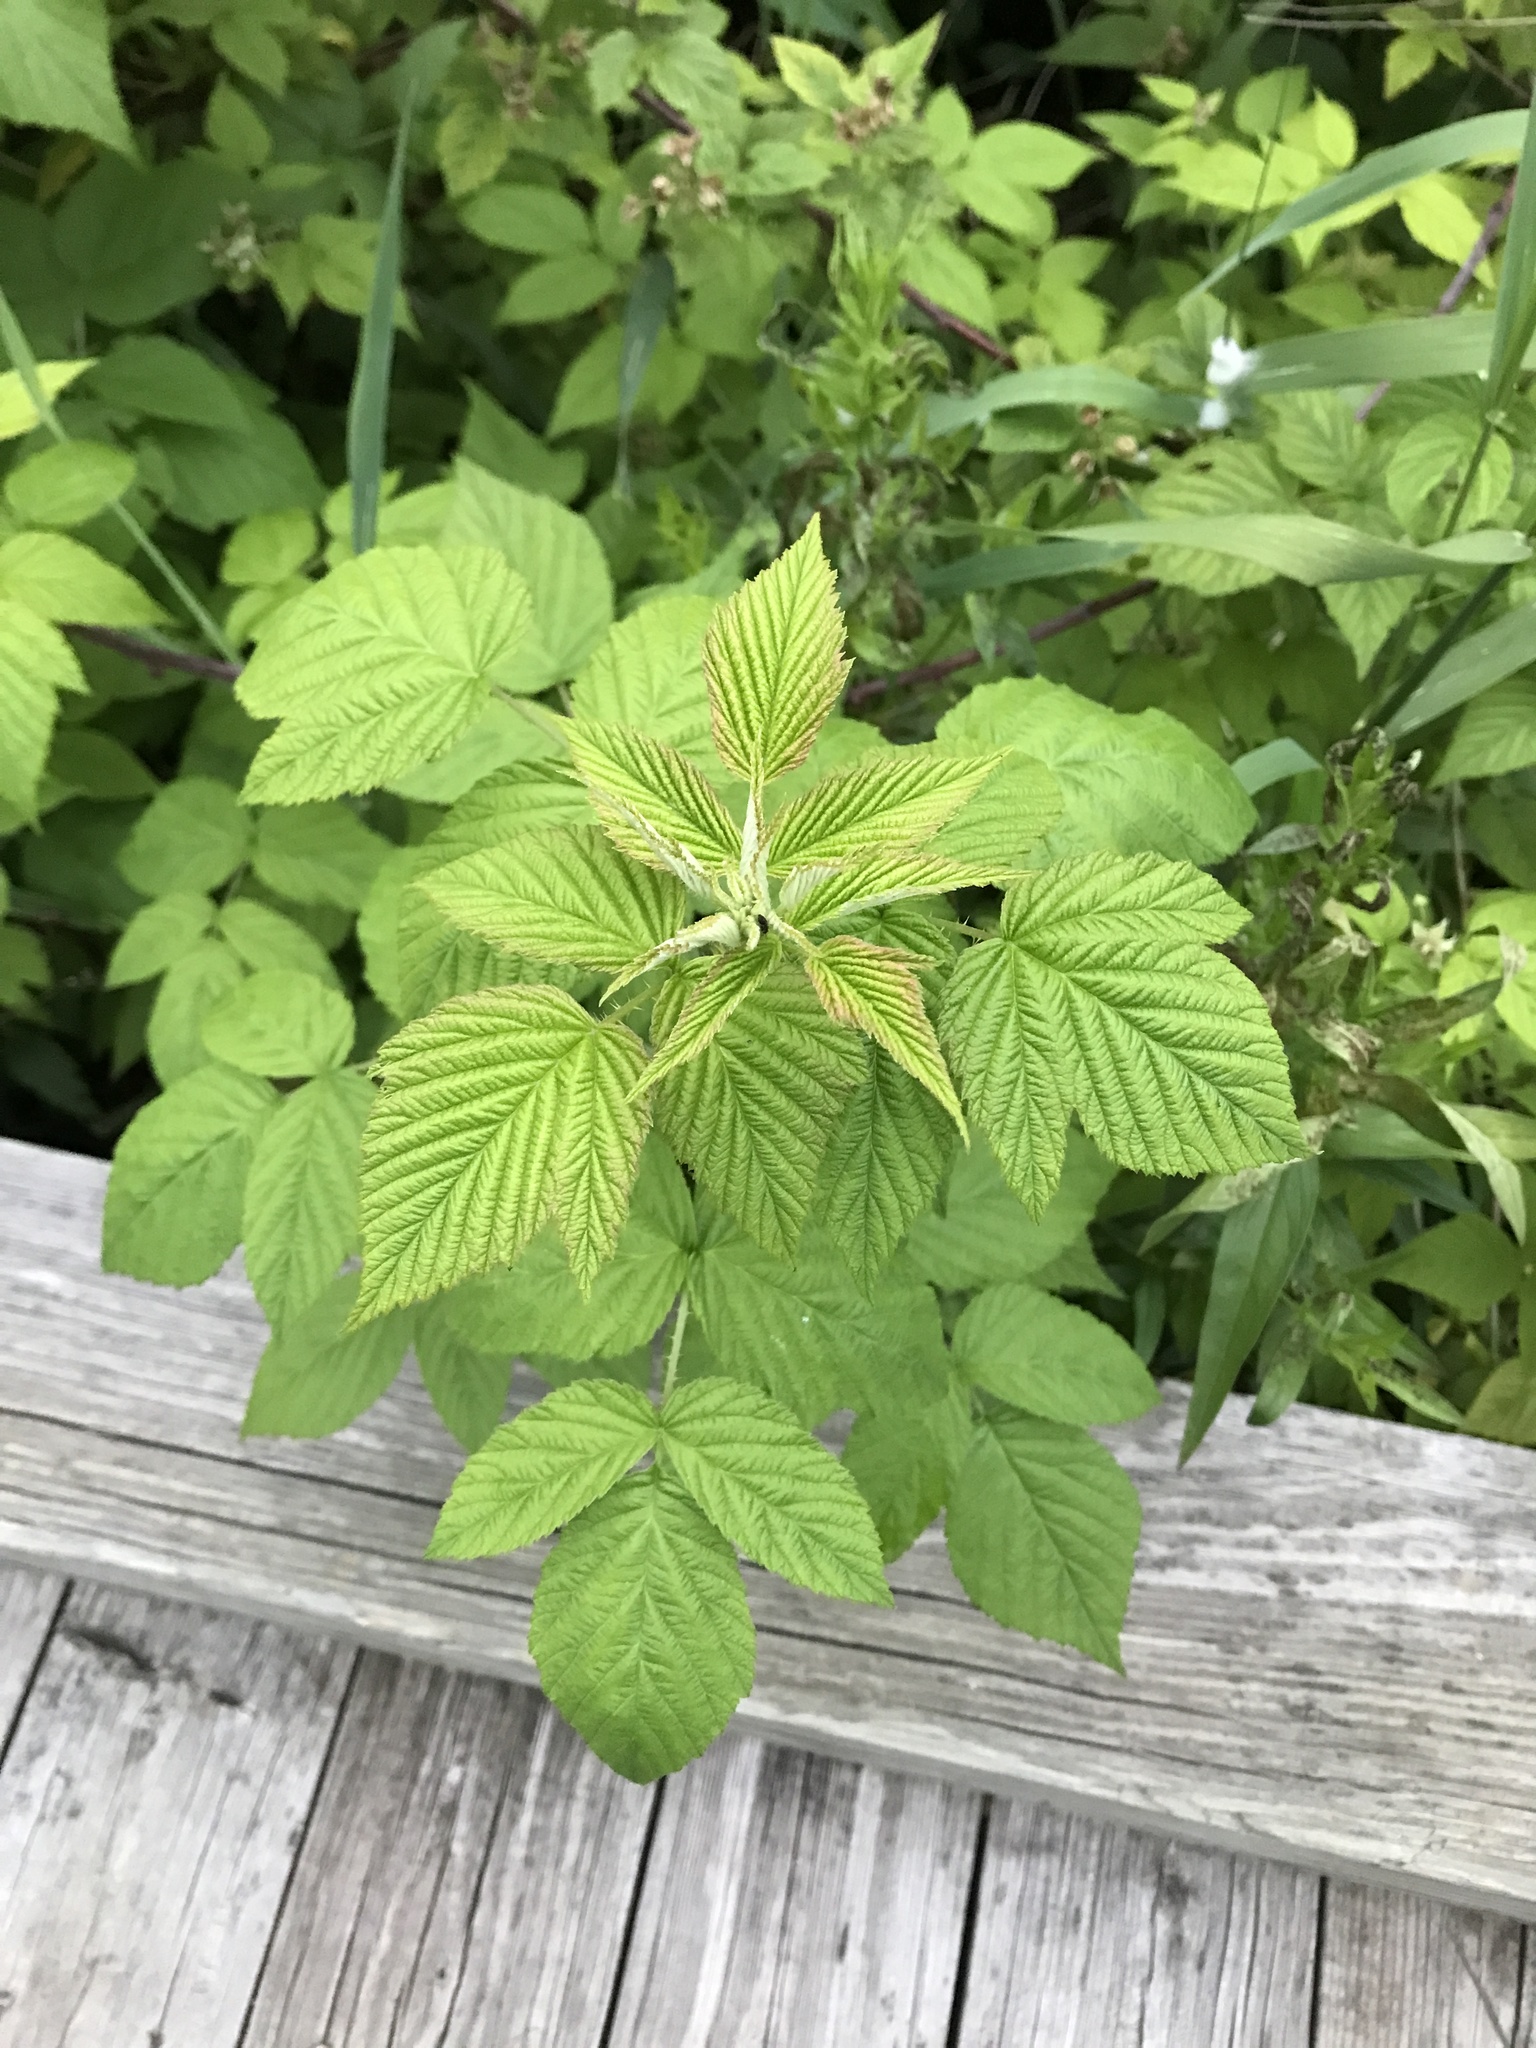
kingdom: Plantae
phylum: Tracheophyta
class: Magnoliopsida
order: Rosales
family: Rosaceae
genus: Rubus
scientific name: Rubus idaeus
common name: Raspberry
